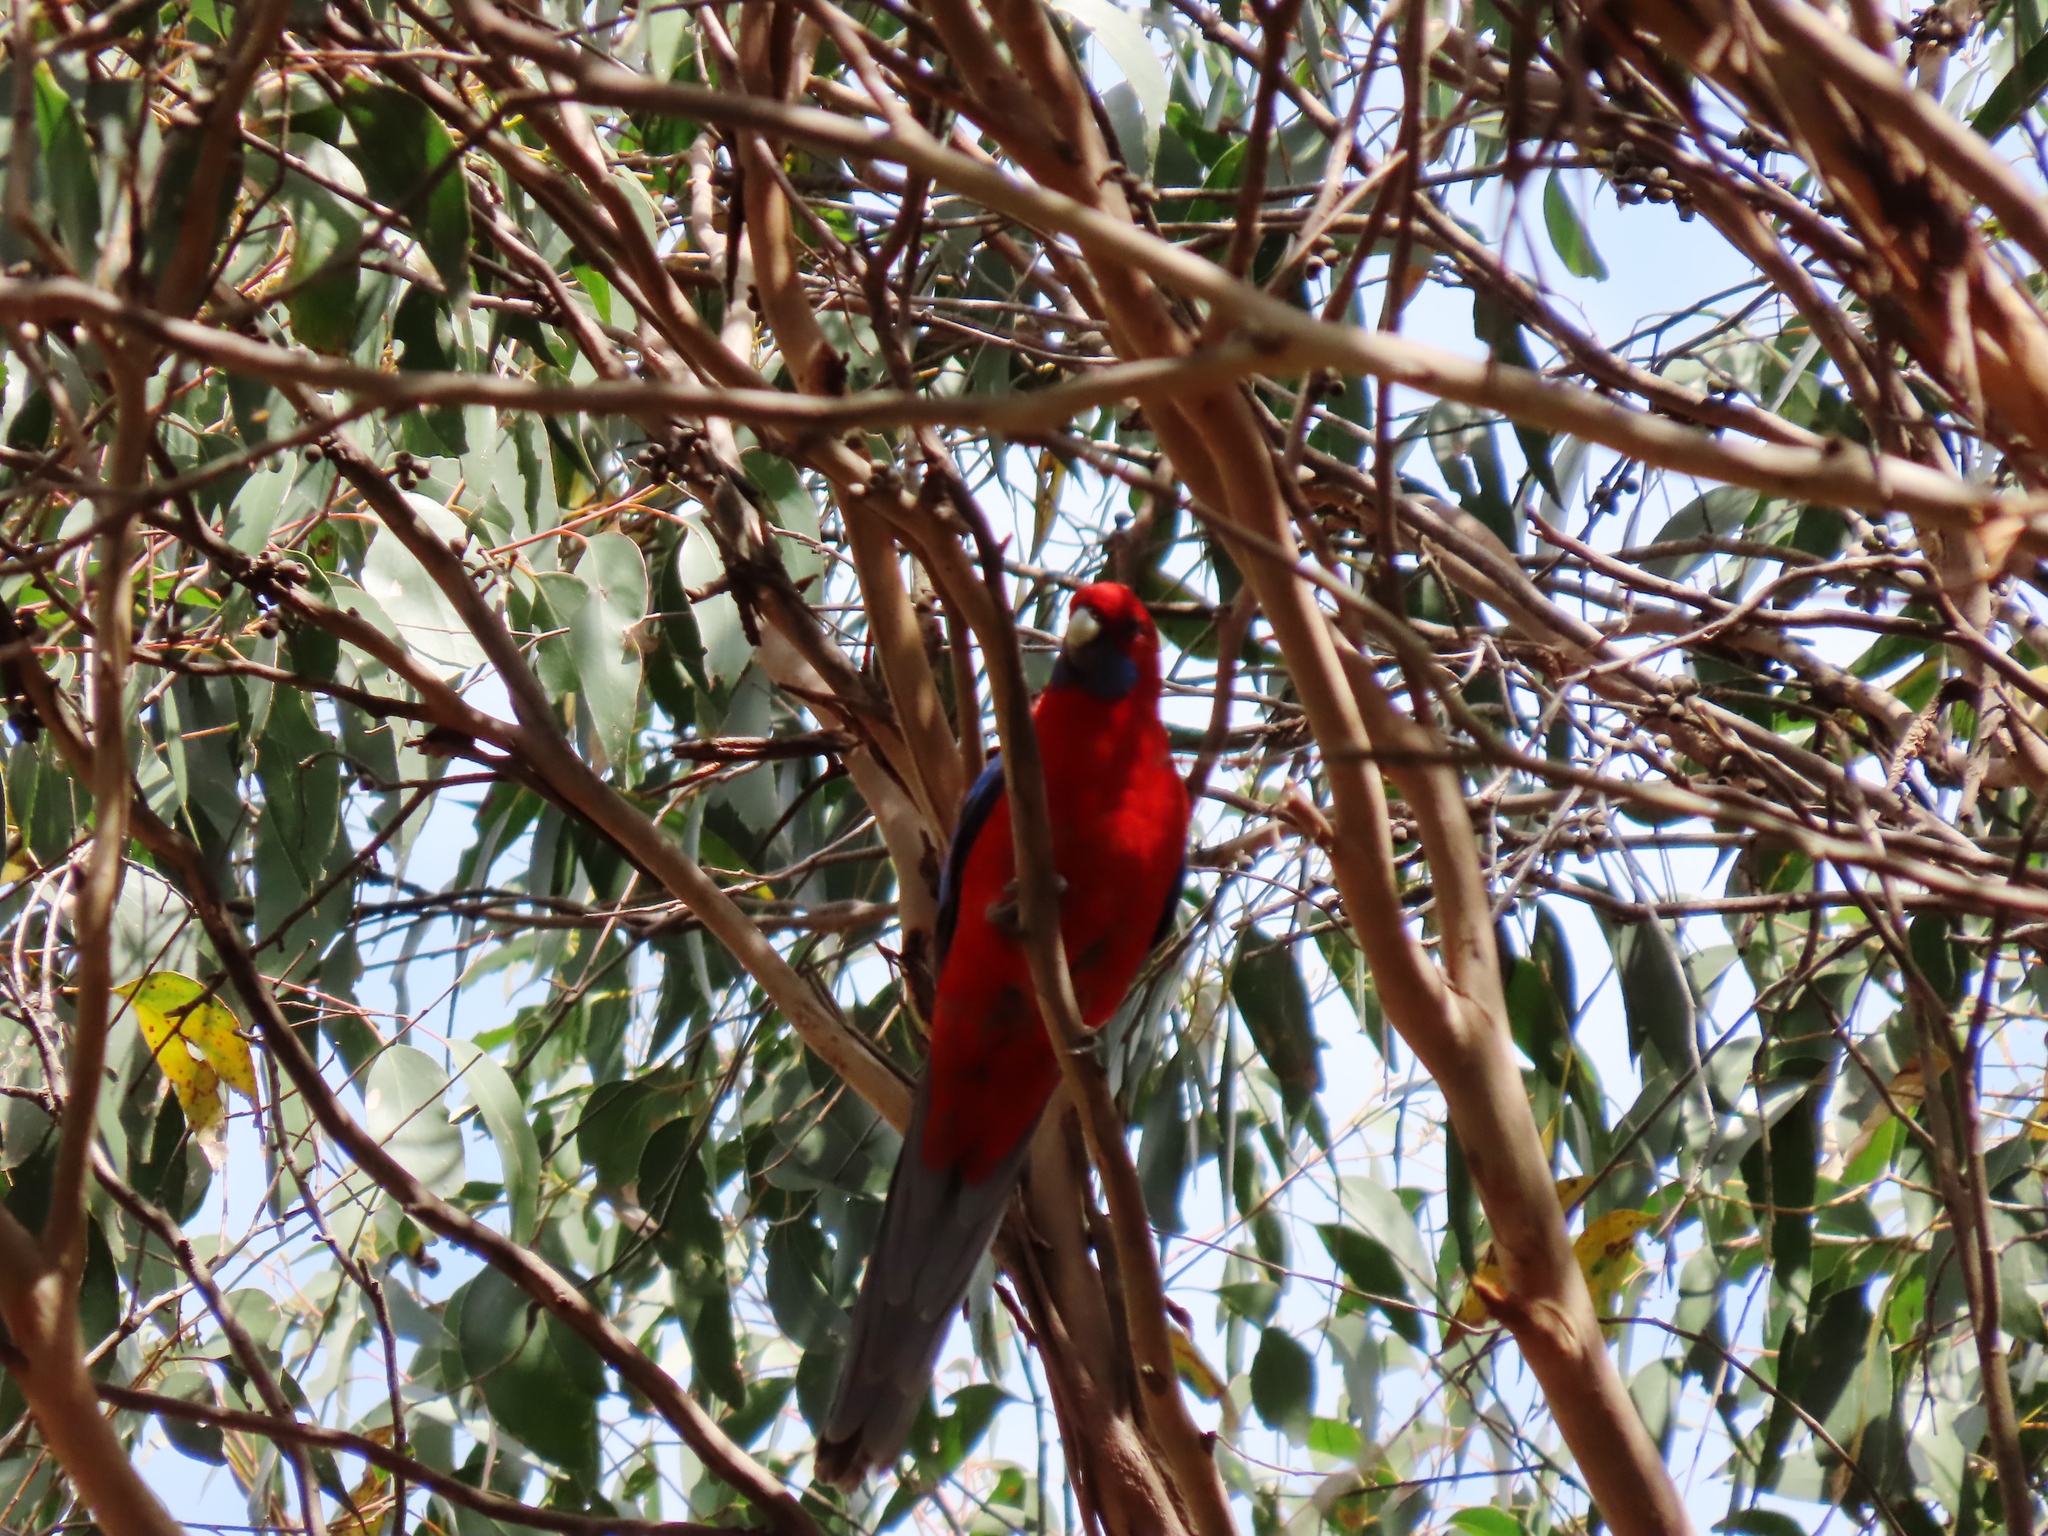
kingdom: Animalia
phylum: Chordata
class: Aves
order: Psittaciformes
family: Psittacidae
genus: Platycercus
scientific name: Platycercus elegans
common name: Crimson rosella
